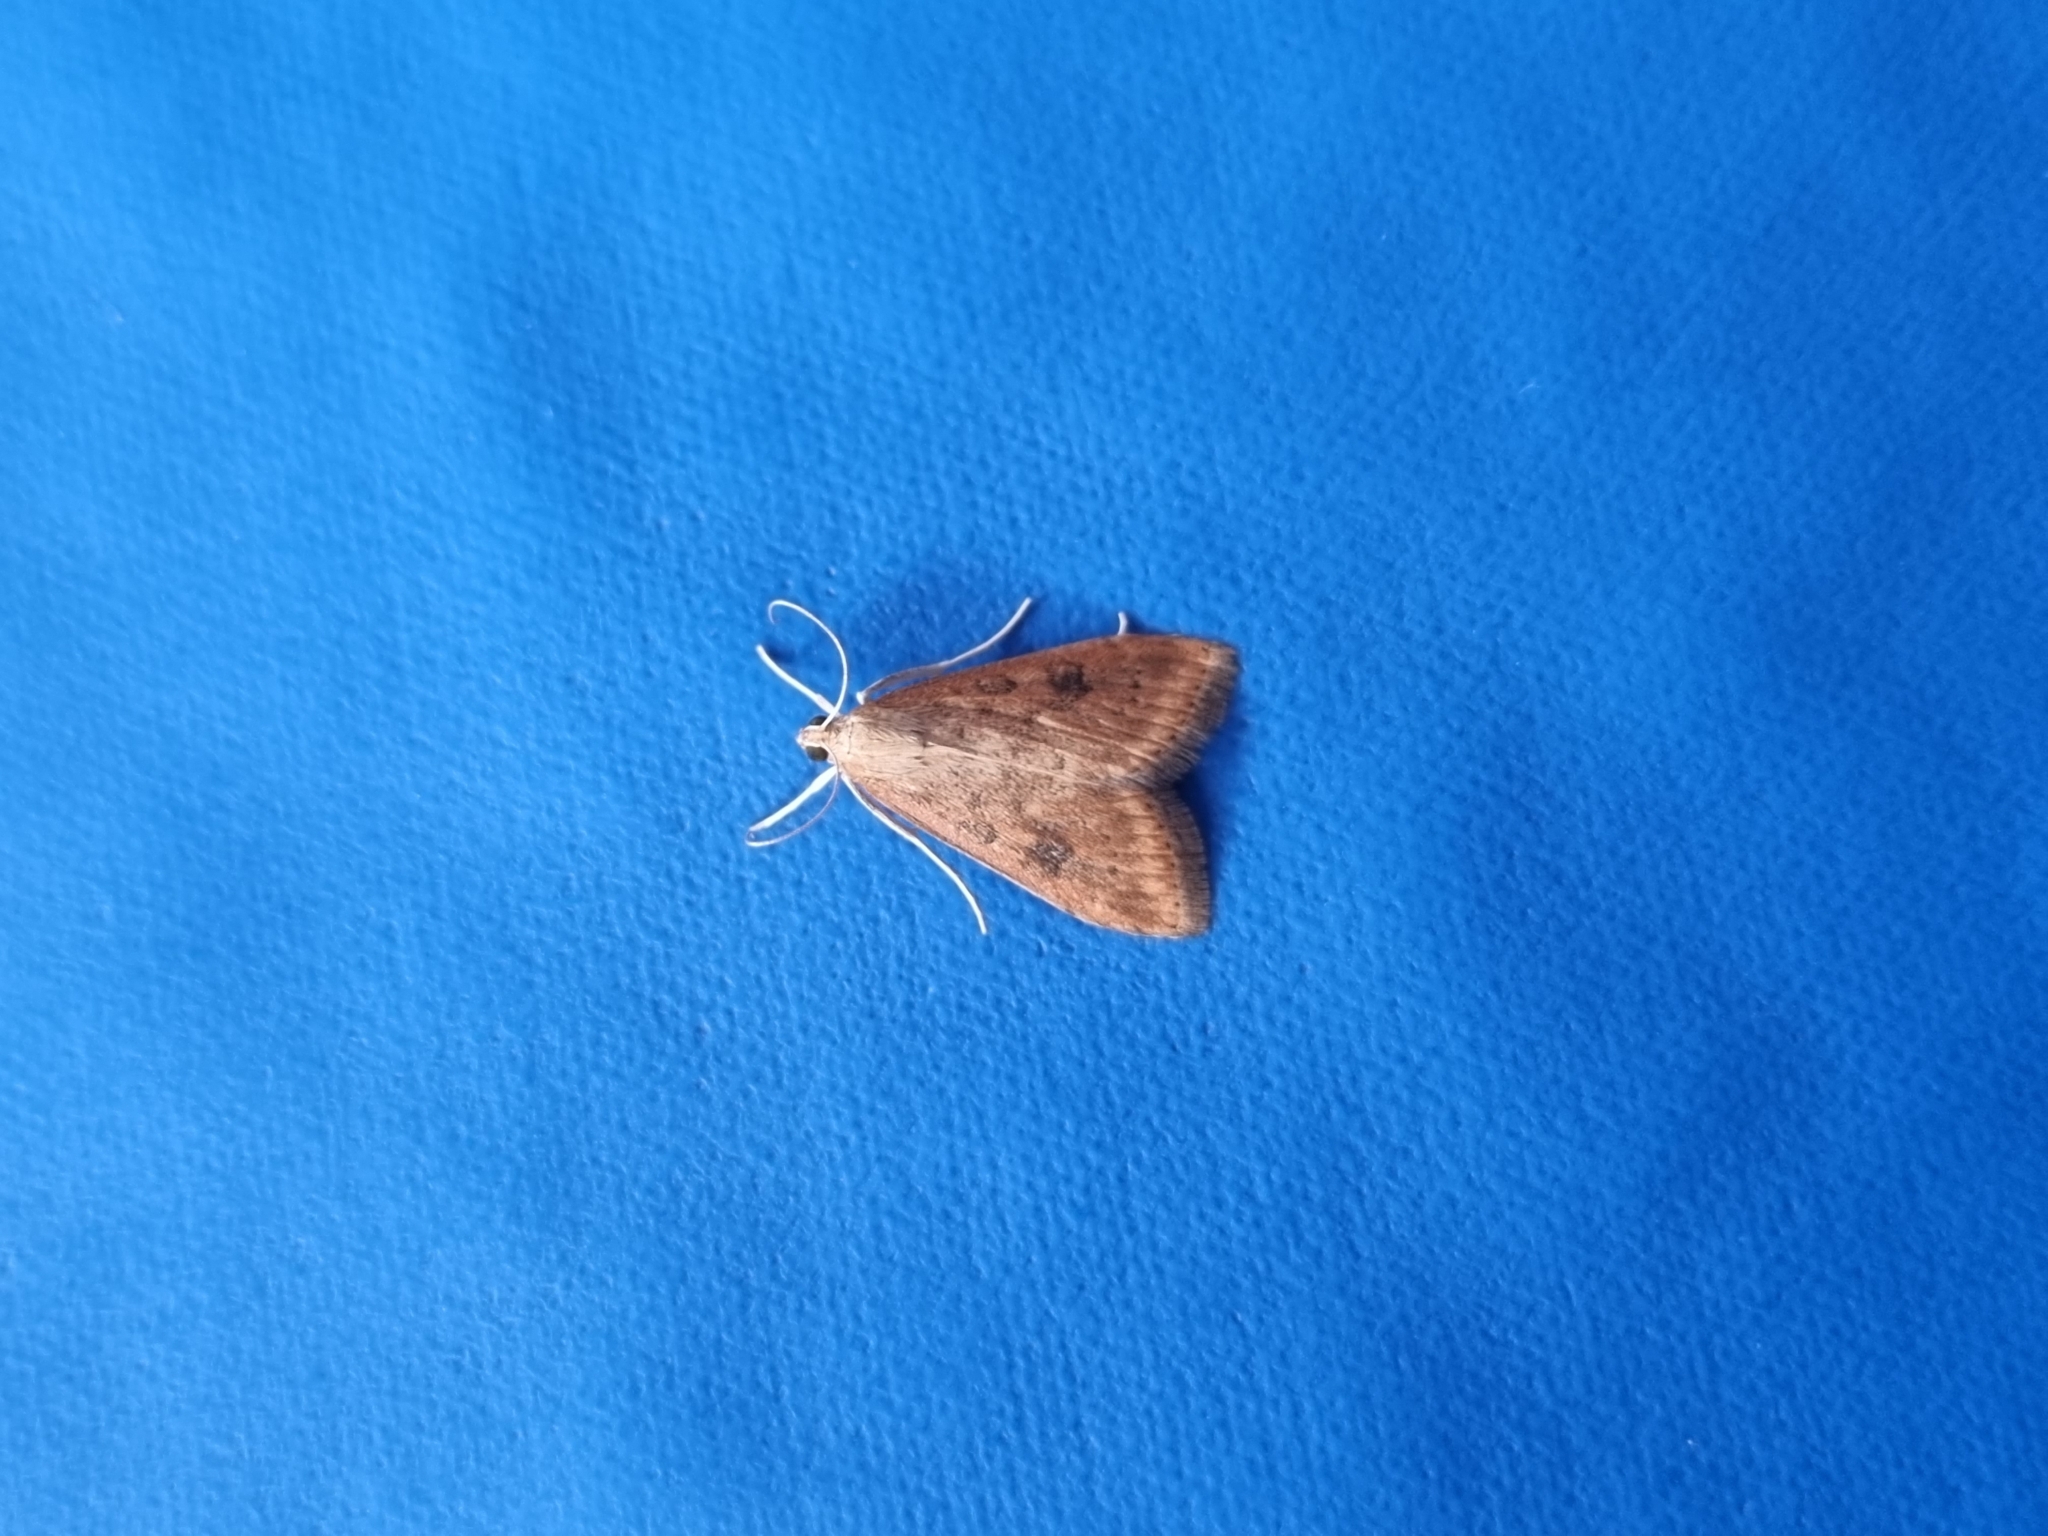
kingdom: Animalia
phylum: Arthropoda
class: Insecta
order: Lepidoptera
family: Crambidae
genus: Udea
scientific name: Udea ferrugalis
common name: Rusty dot
